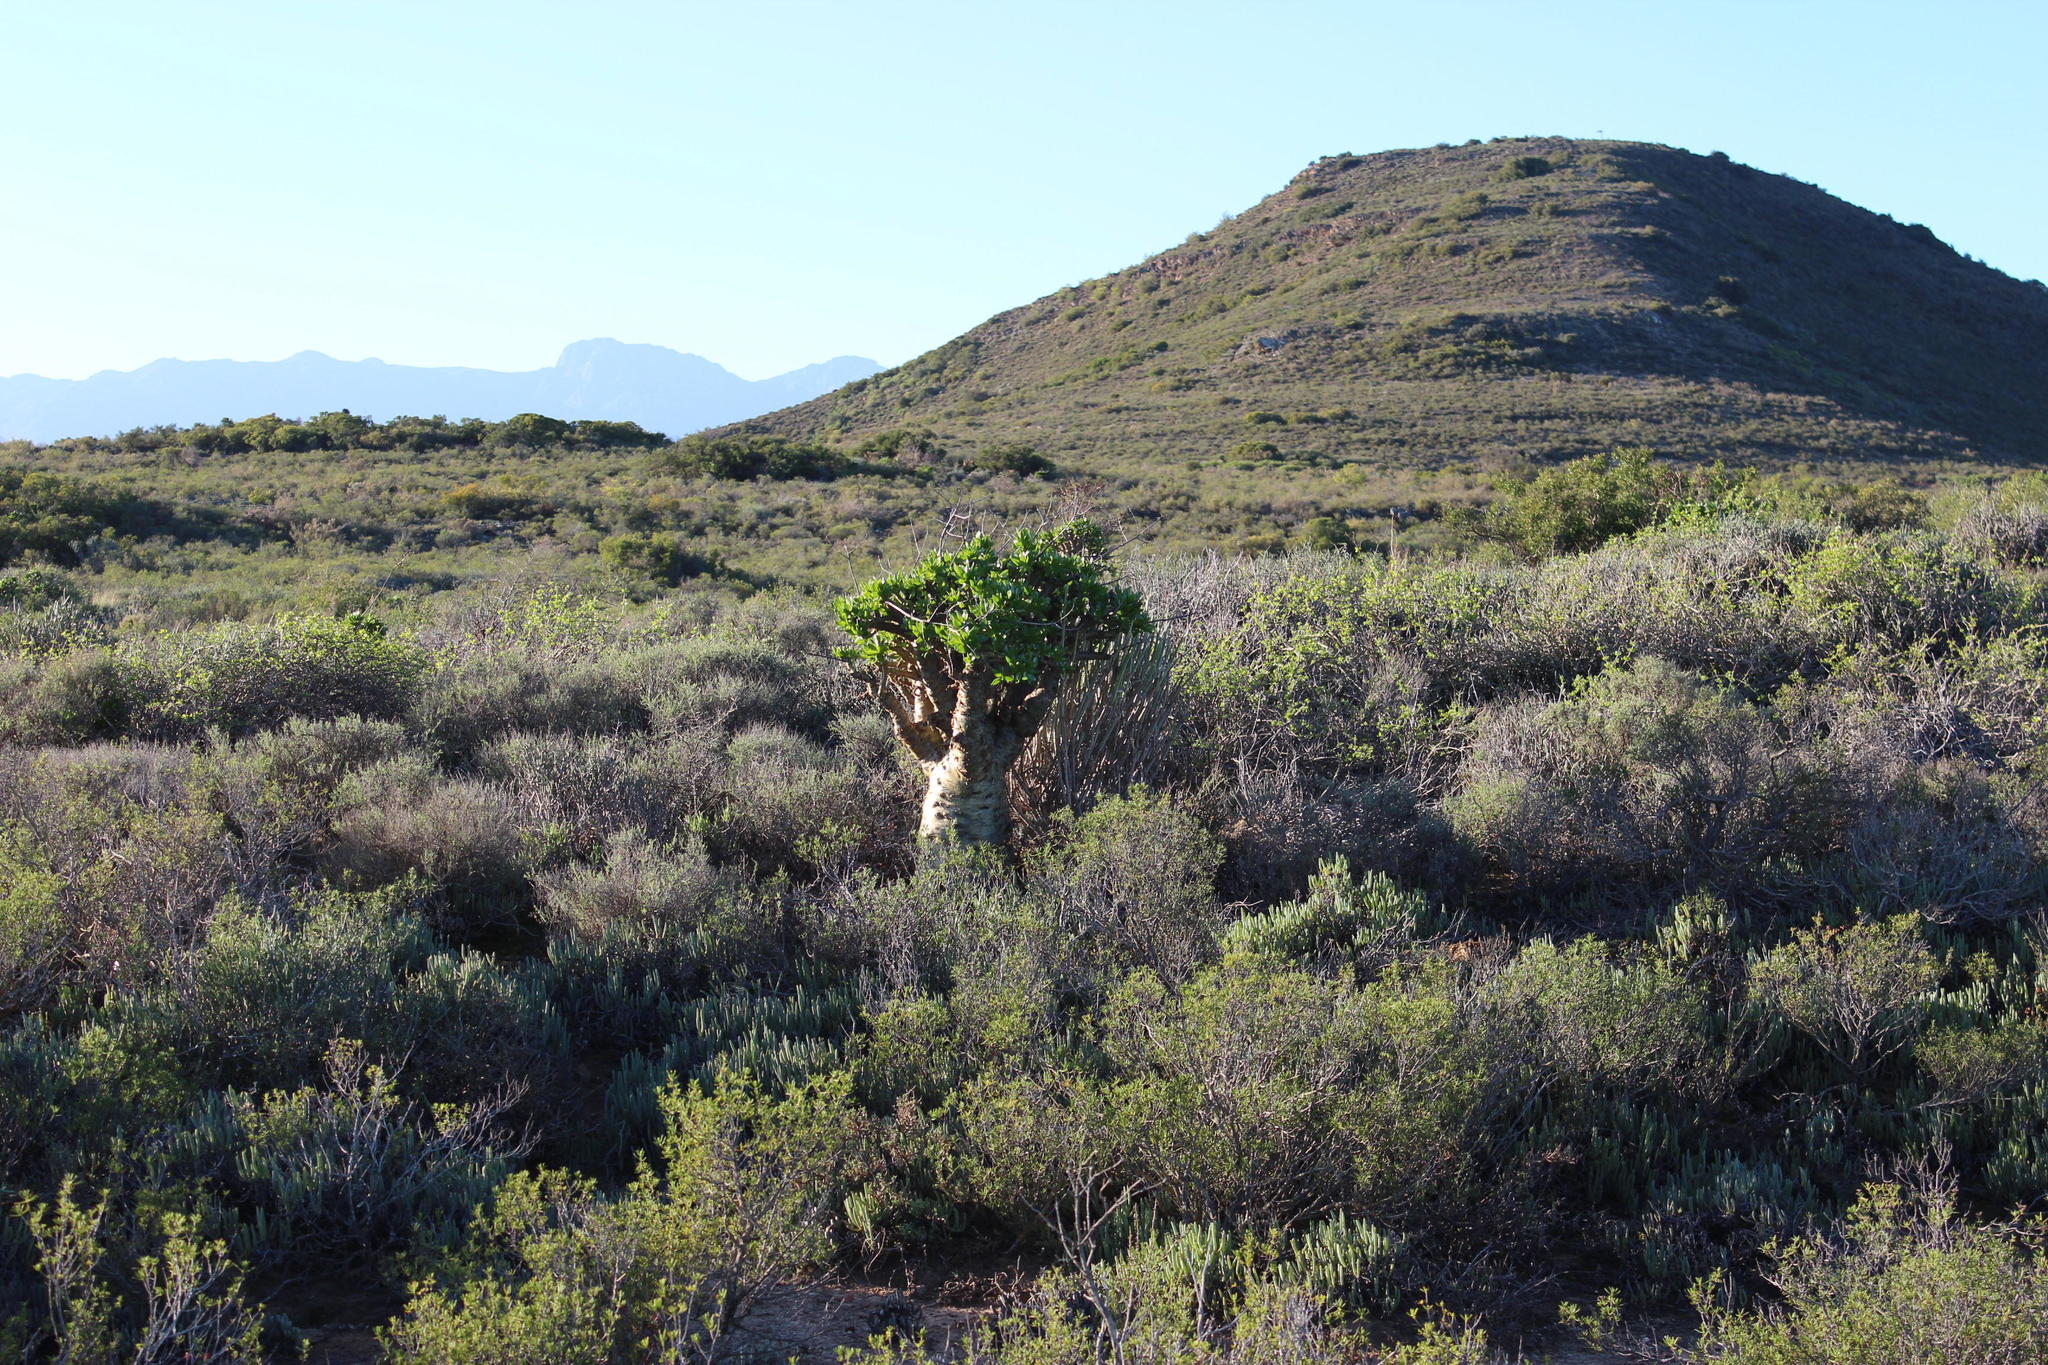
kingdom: Plantae
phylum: Tracheophyta
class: Magnoliopsida
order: Saxifragales
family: Crassulaceae
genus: Tylecodon
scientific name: Tylecodon paniculatus
